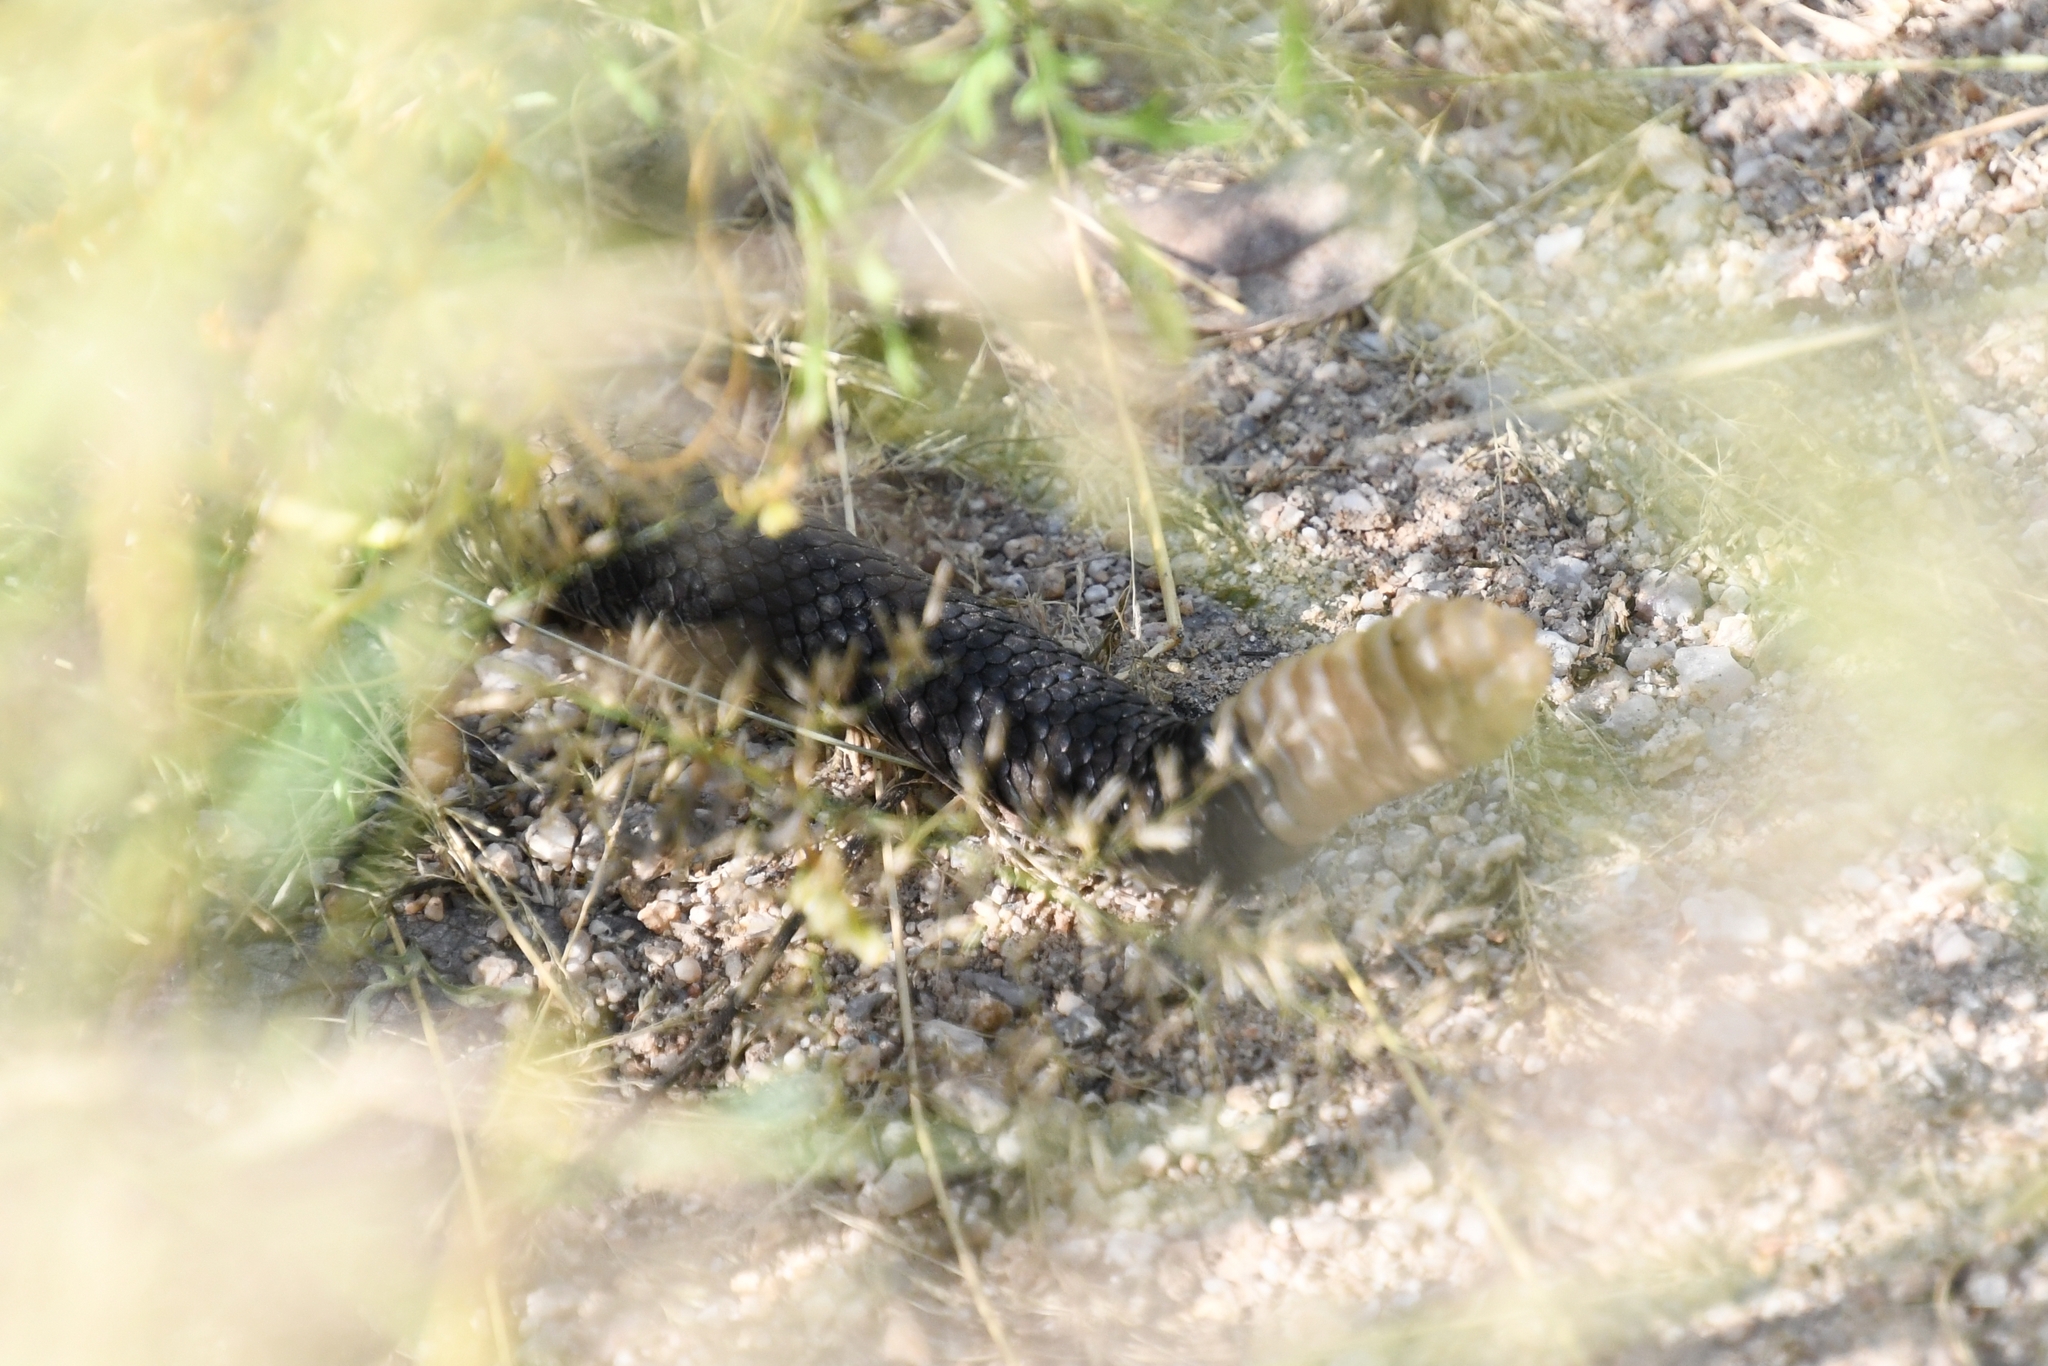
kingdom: Animalia
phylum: Chordata
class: Squamata
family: Viperidae
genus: Crotalus
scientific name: Crotalus molossus
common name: Black tailed rattlesnake
